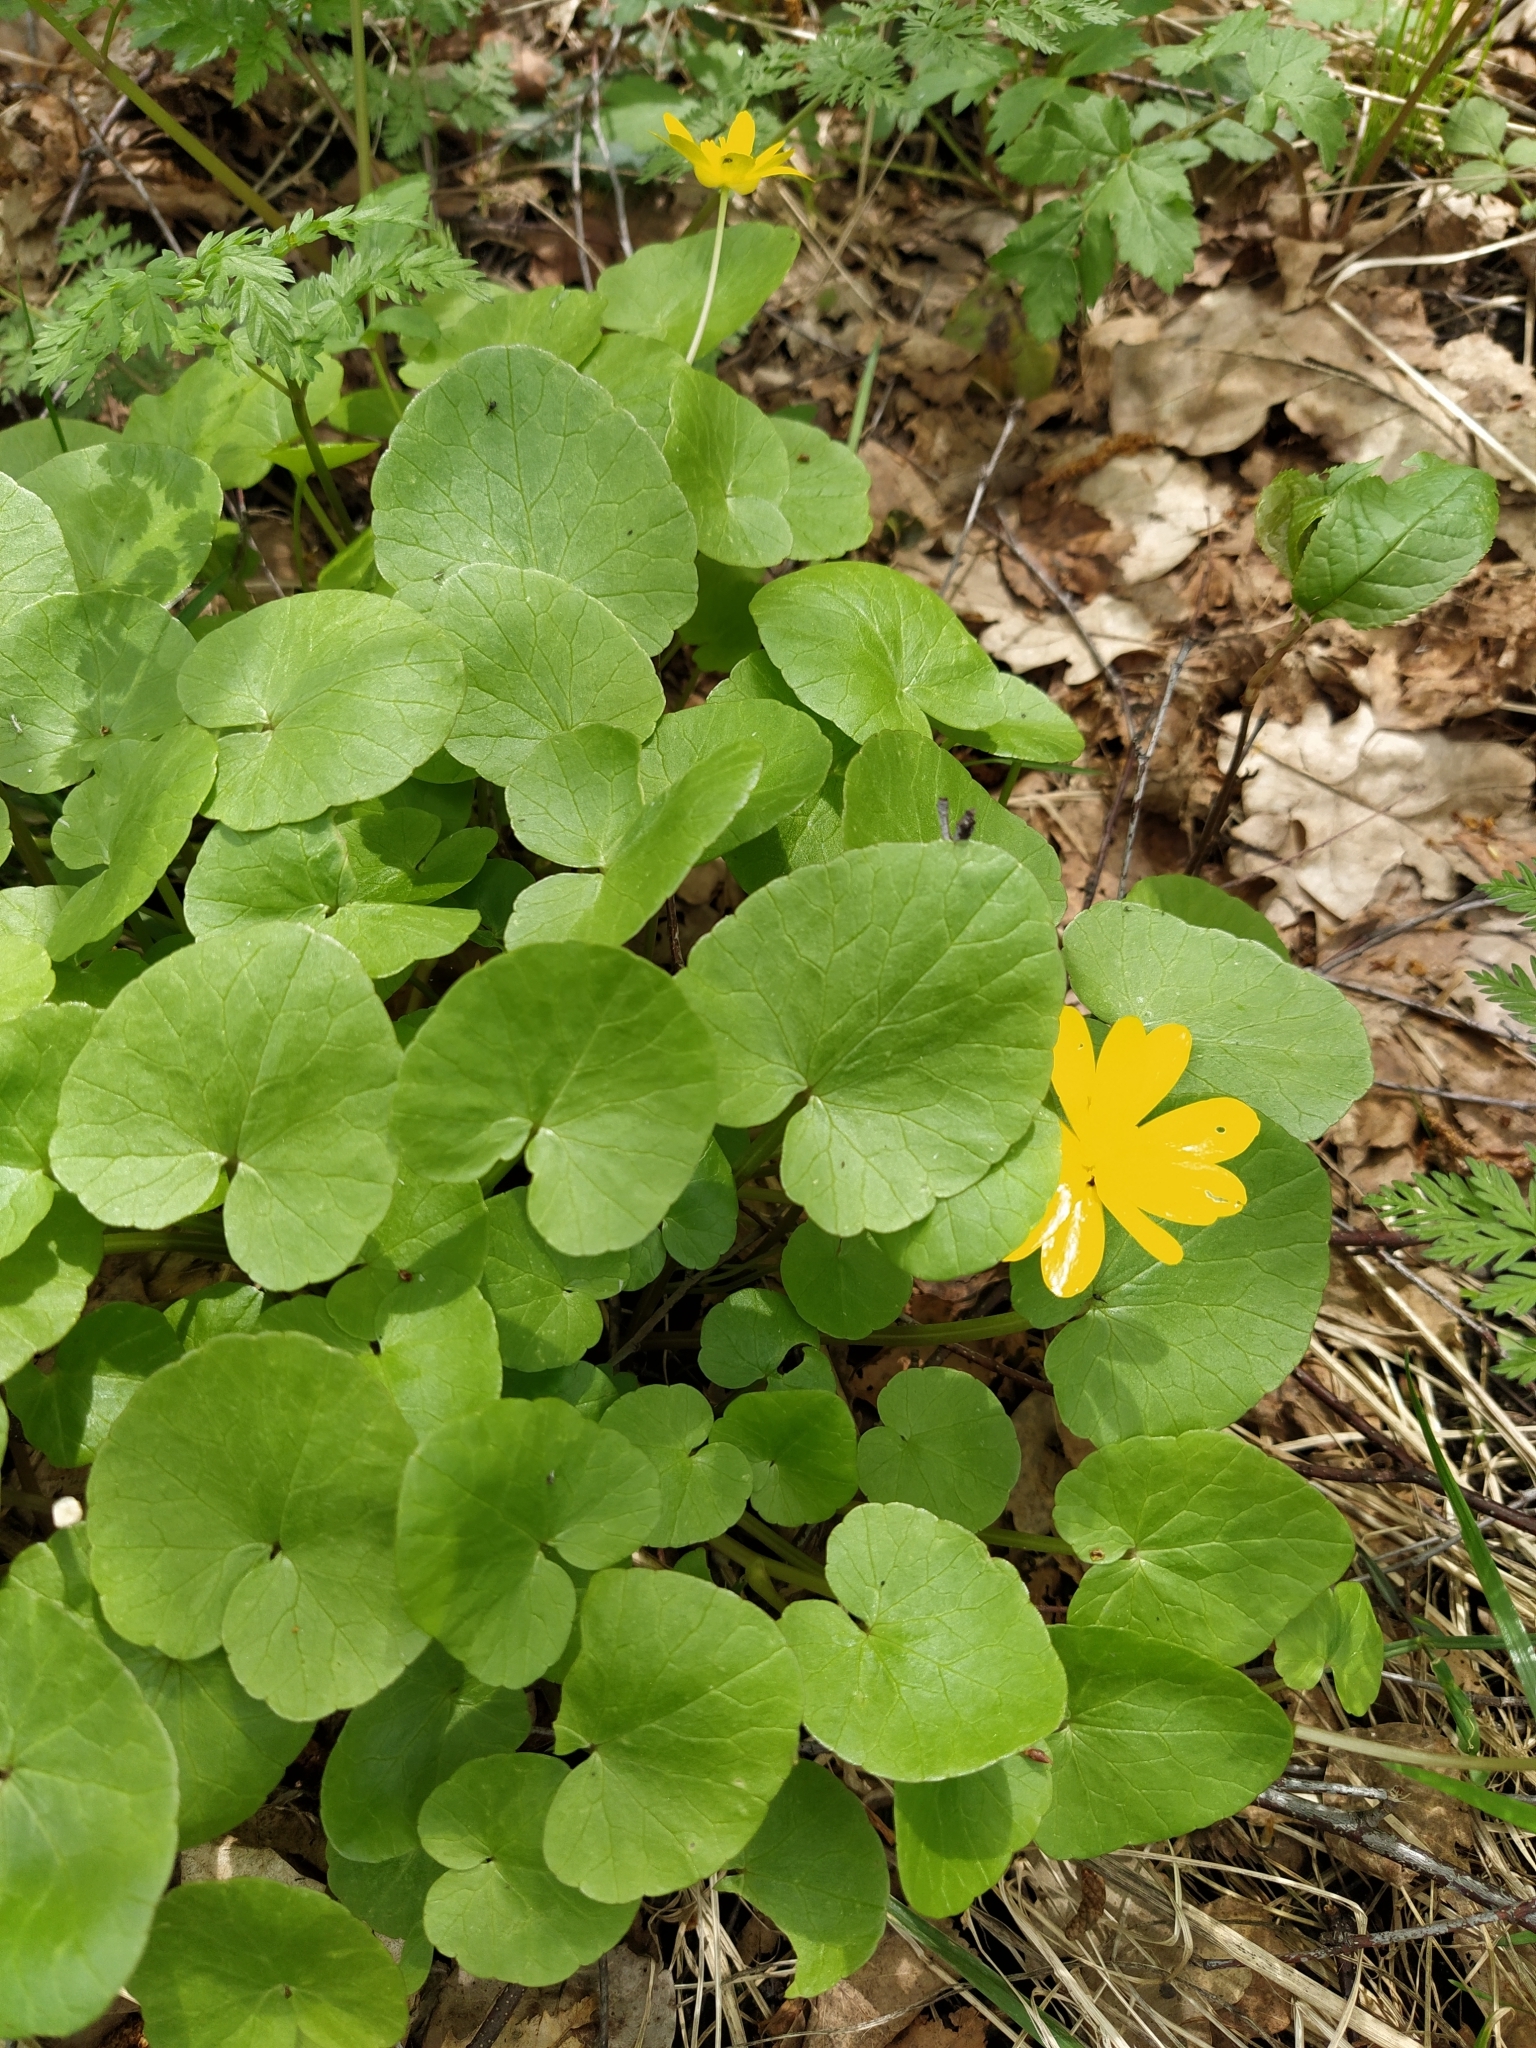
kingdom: Plantae
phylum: Tracheophyta
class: Magnoliopsida
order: Ranunculales
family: Ranunculaceae
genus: Ficaria
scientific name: Ficaria verna
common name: Lesser celandine
